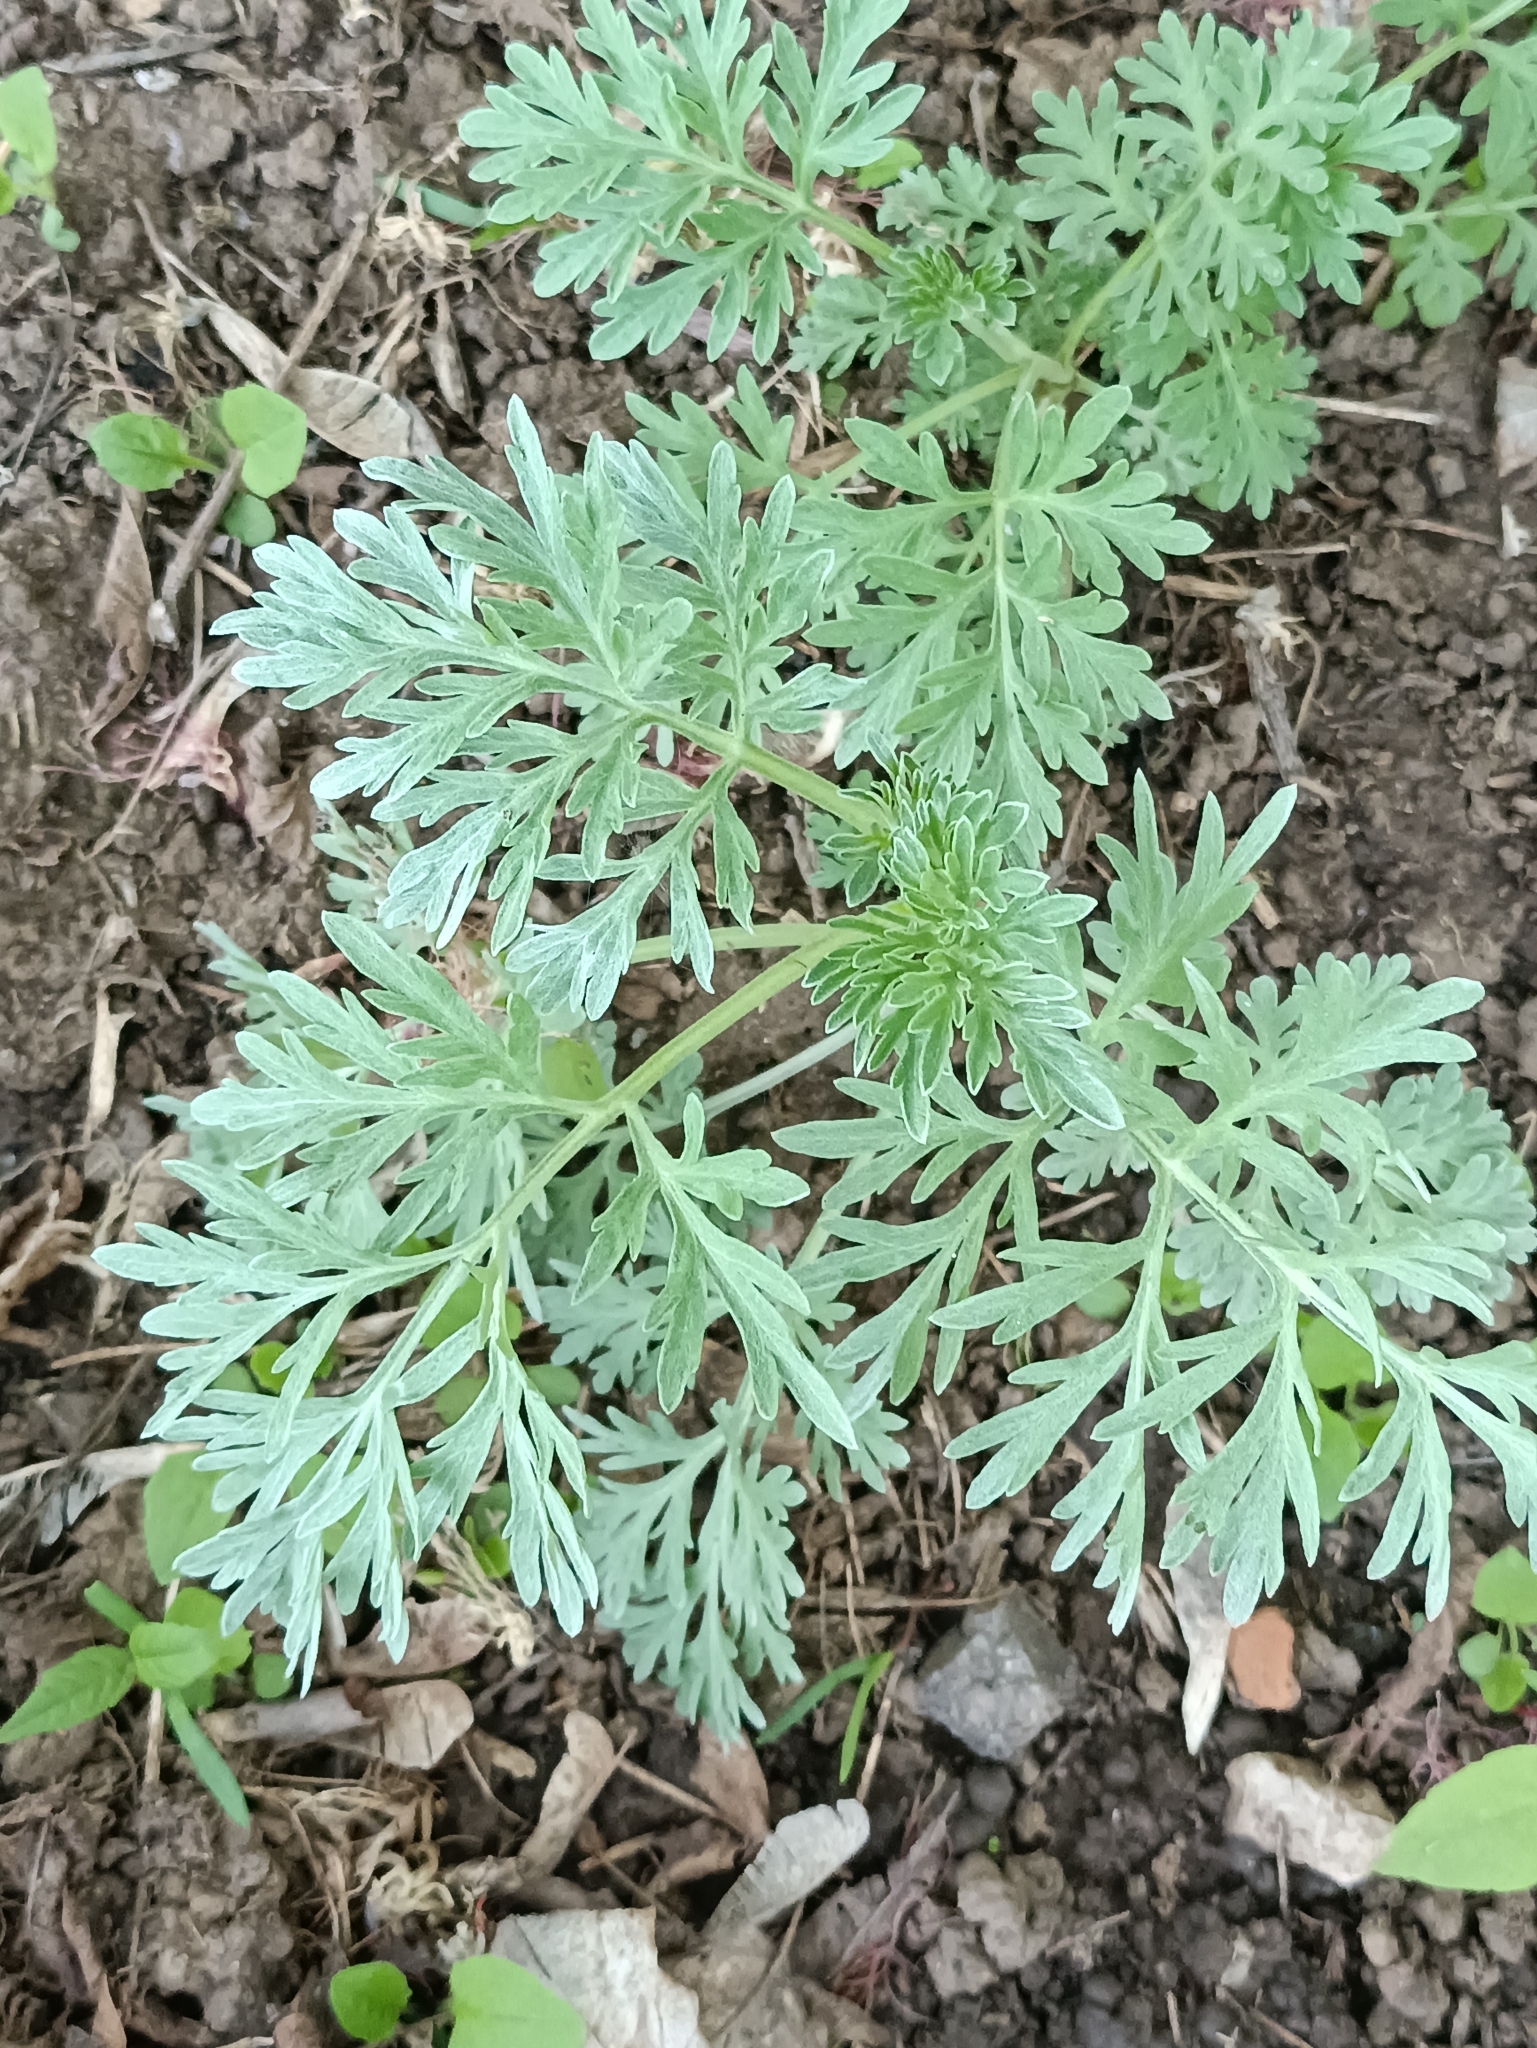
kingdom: Plantae
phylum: Tracheophyta
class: Magnoliopsida
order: Asterales
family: Asteraceae
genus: Artemisia
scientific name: Artemisia absinthium
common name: Wormwood
